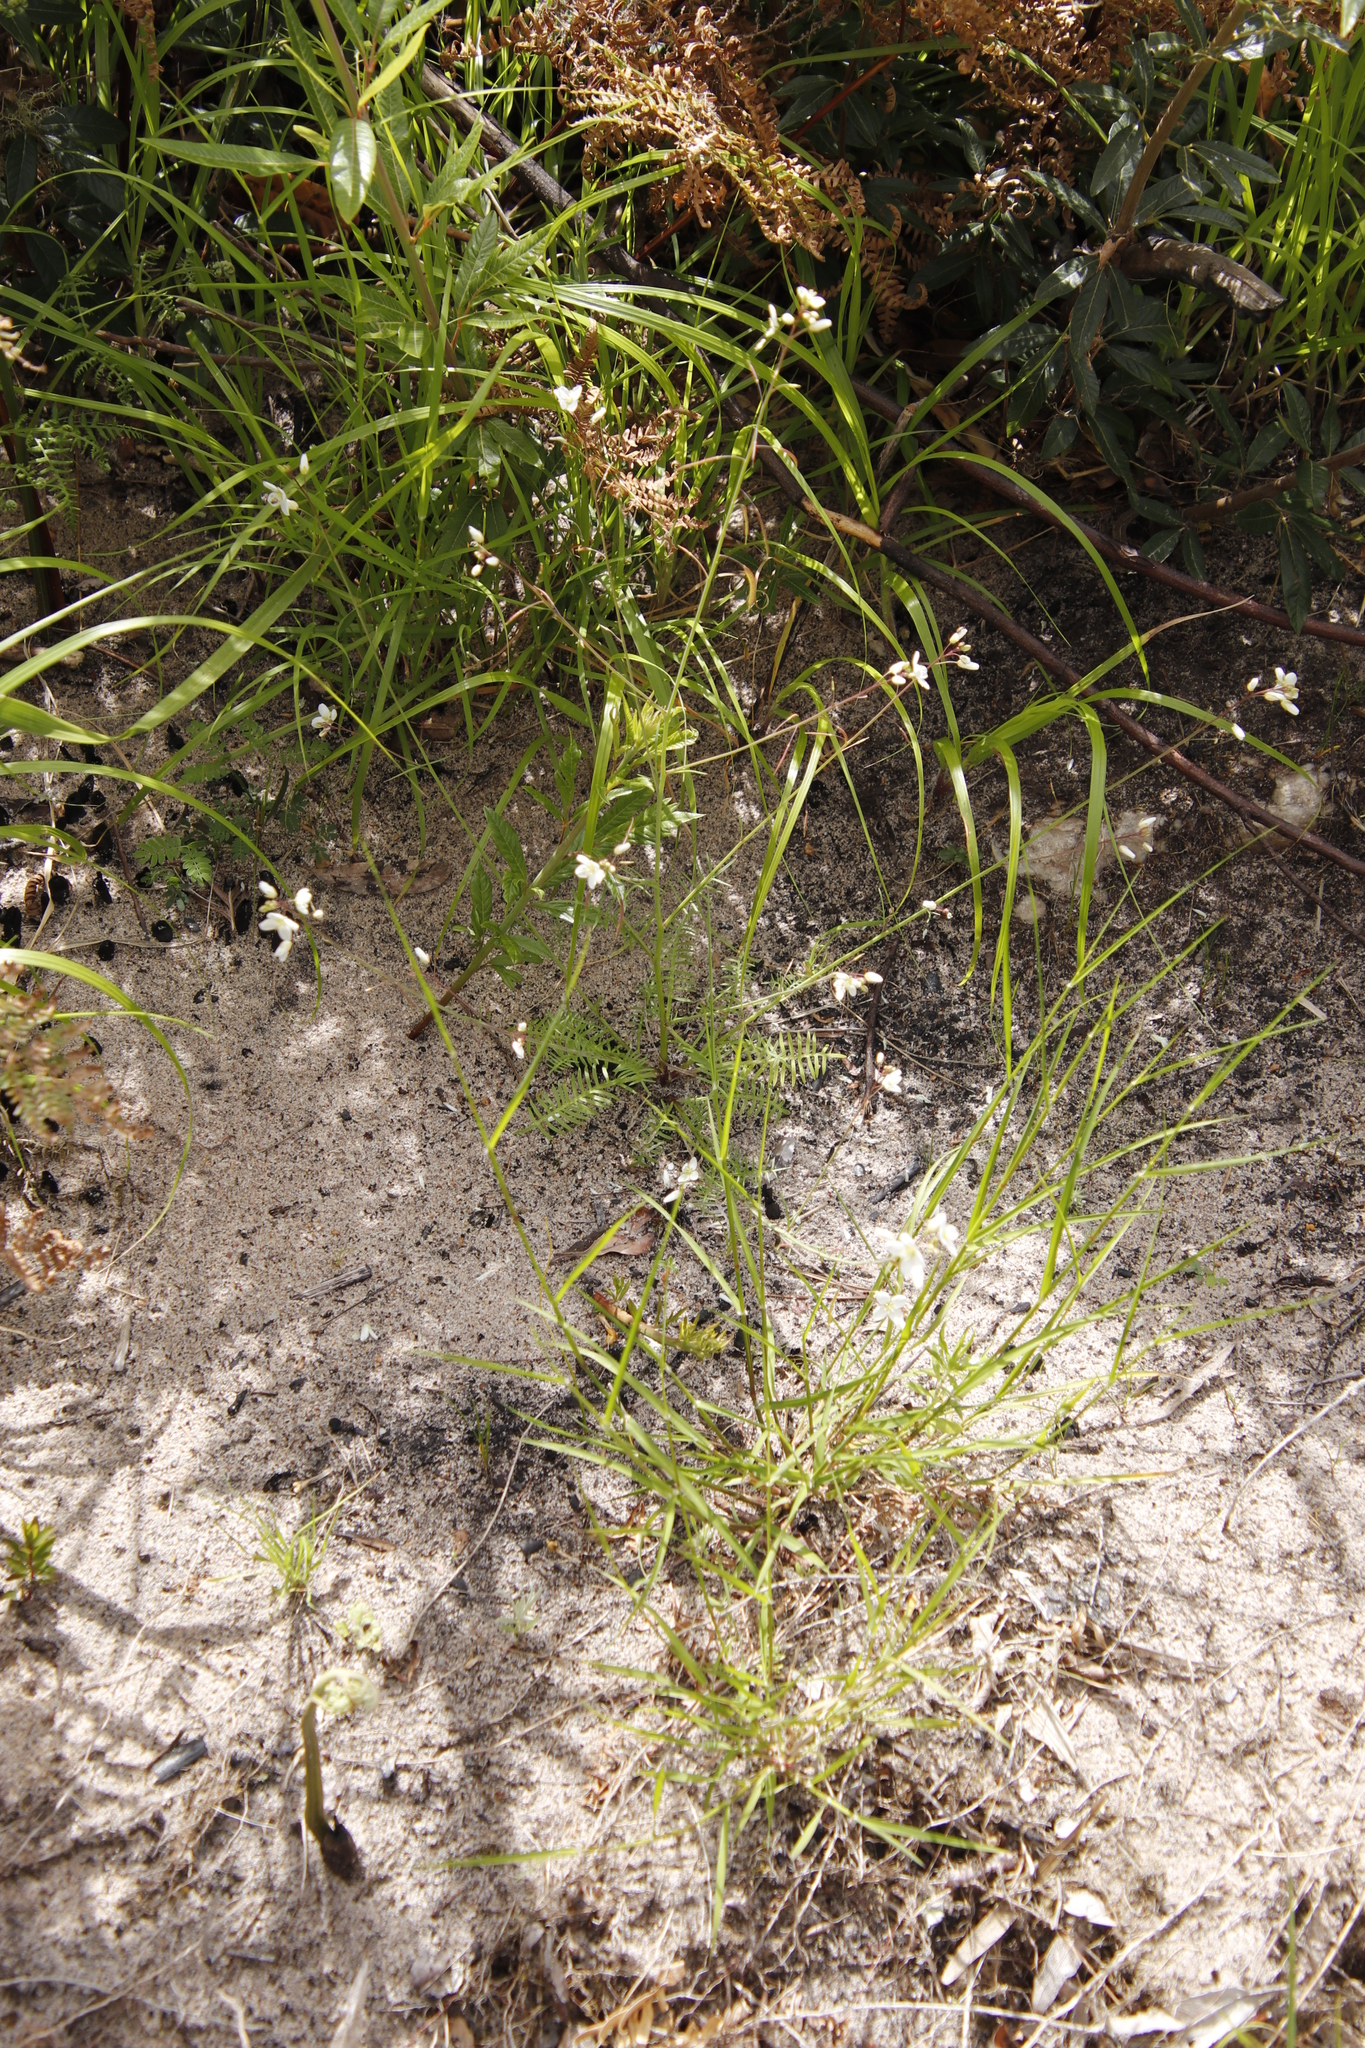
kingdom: Plantae
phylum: Tracheophyta
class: Magnoliopsida
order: Brassicales
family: Brassicaceae
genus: Heliophila
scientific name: Heliophila meyeri
